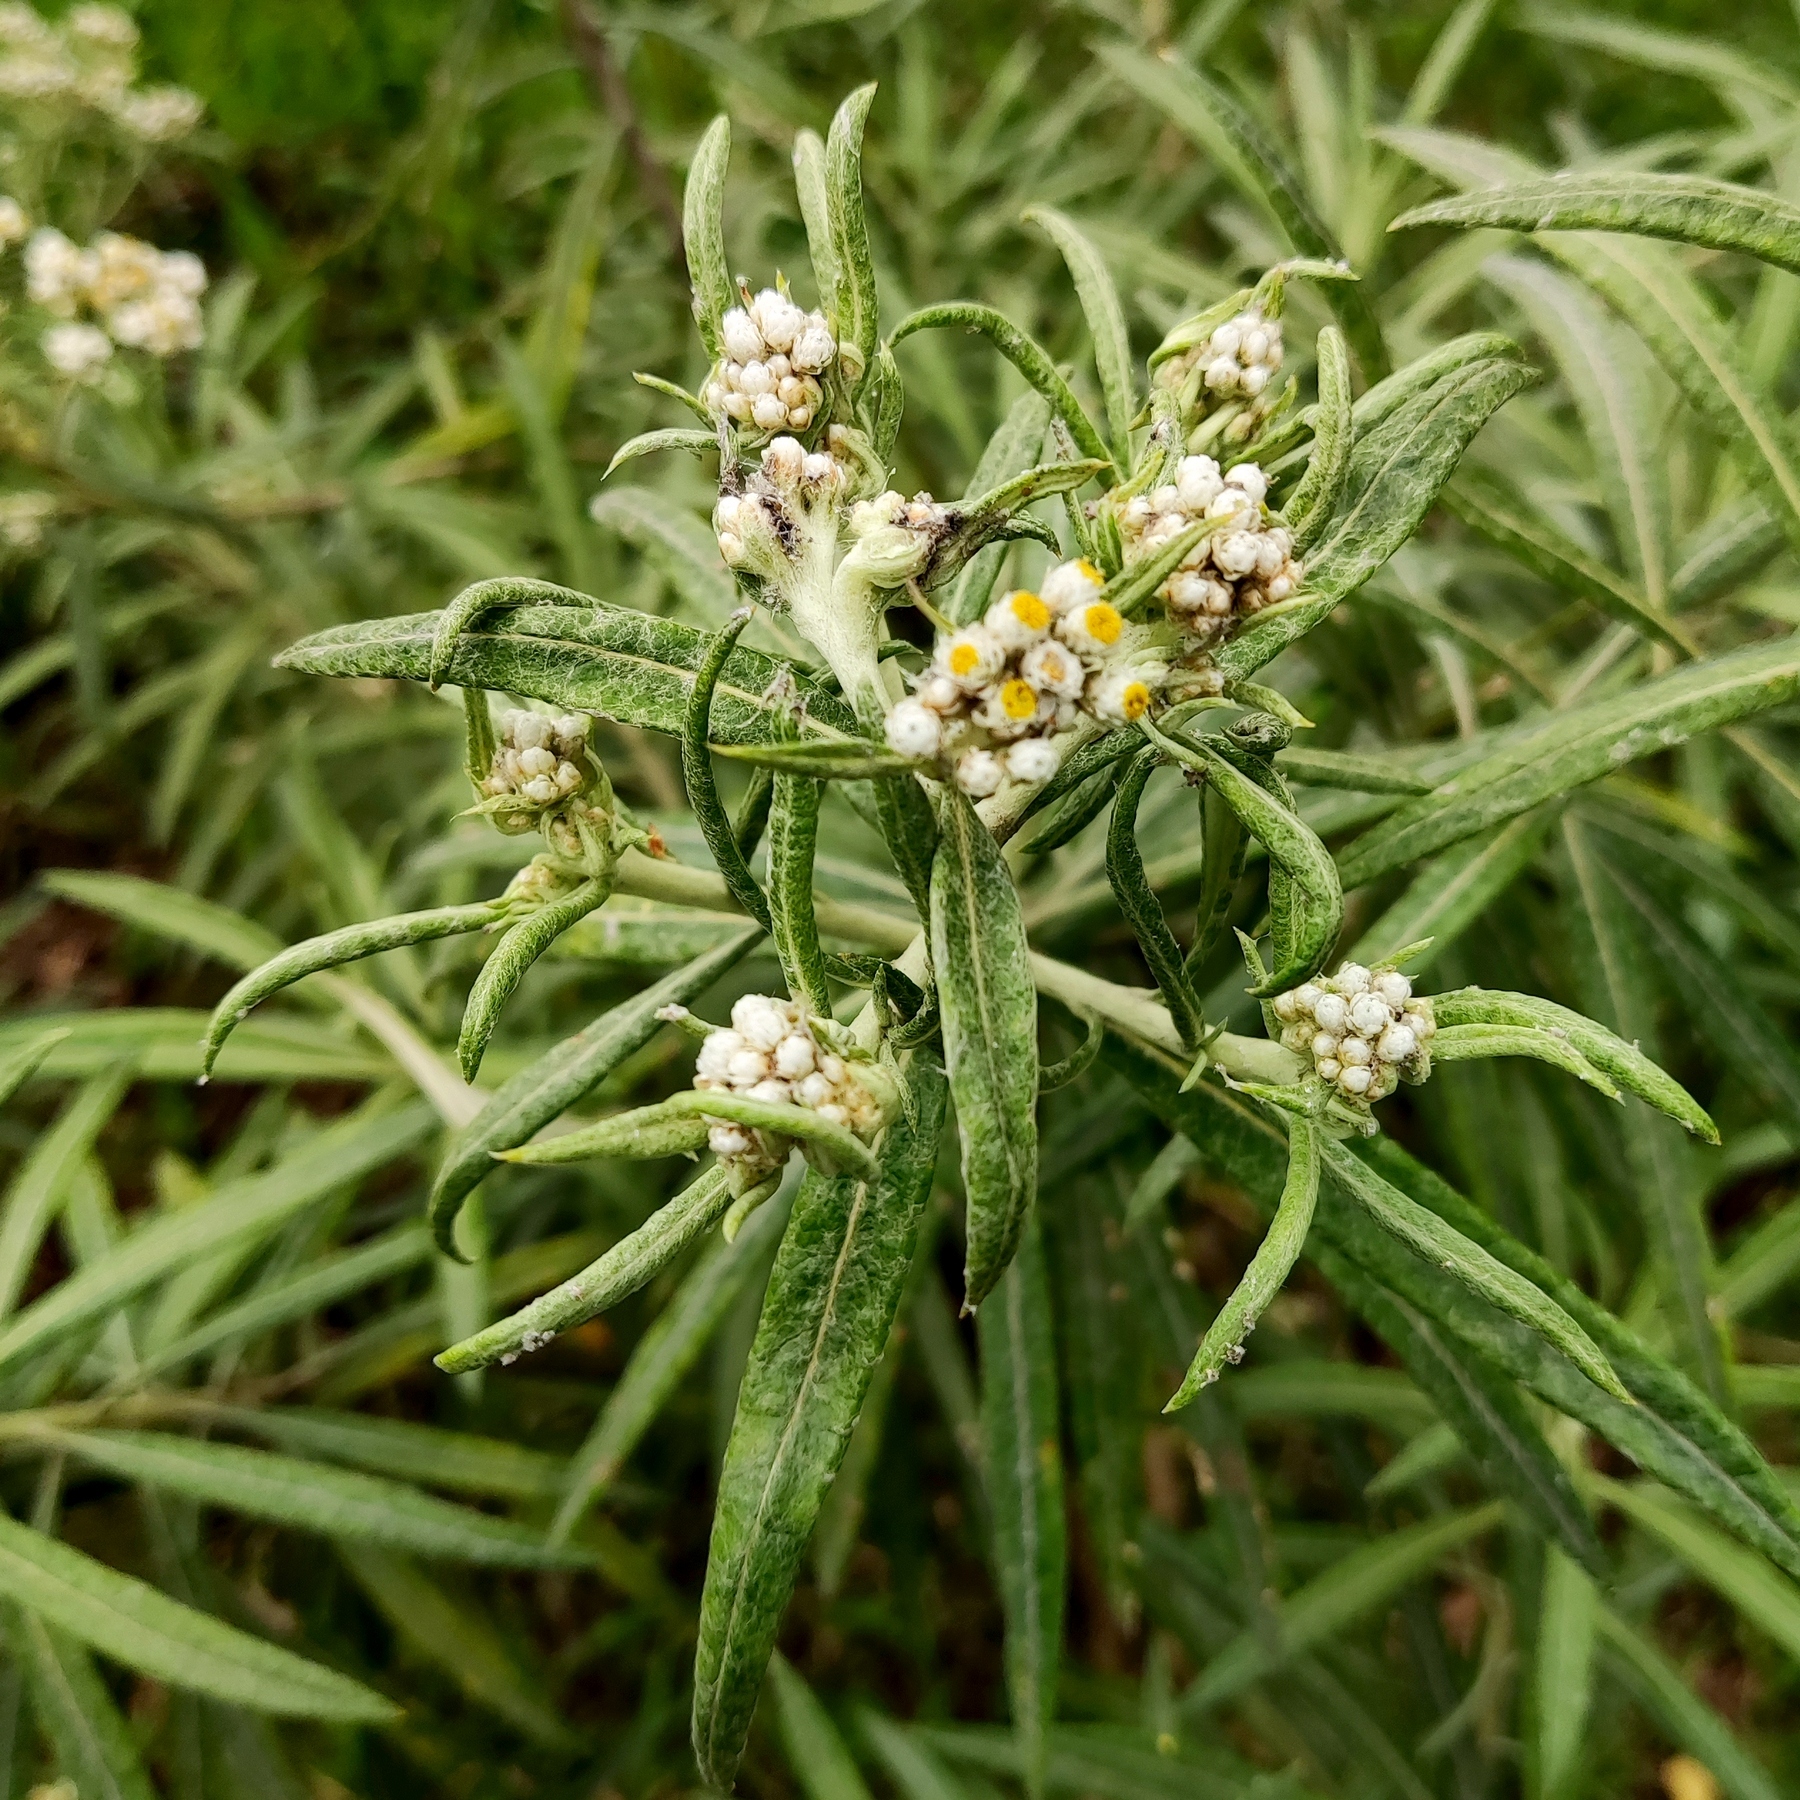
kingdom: Plantae
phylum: Tracheophyta
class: Magnoliopsida
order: Asterales
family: Asteraceae
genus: Anaphalis
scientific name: Anaphalis longifolia
